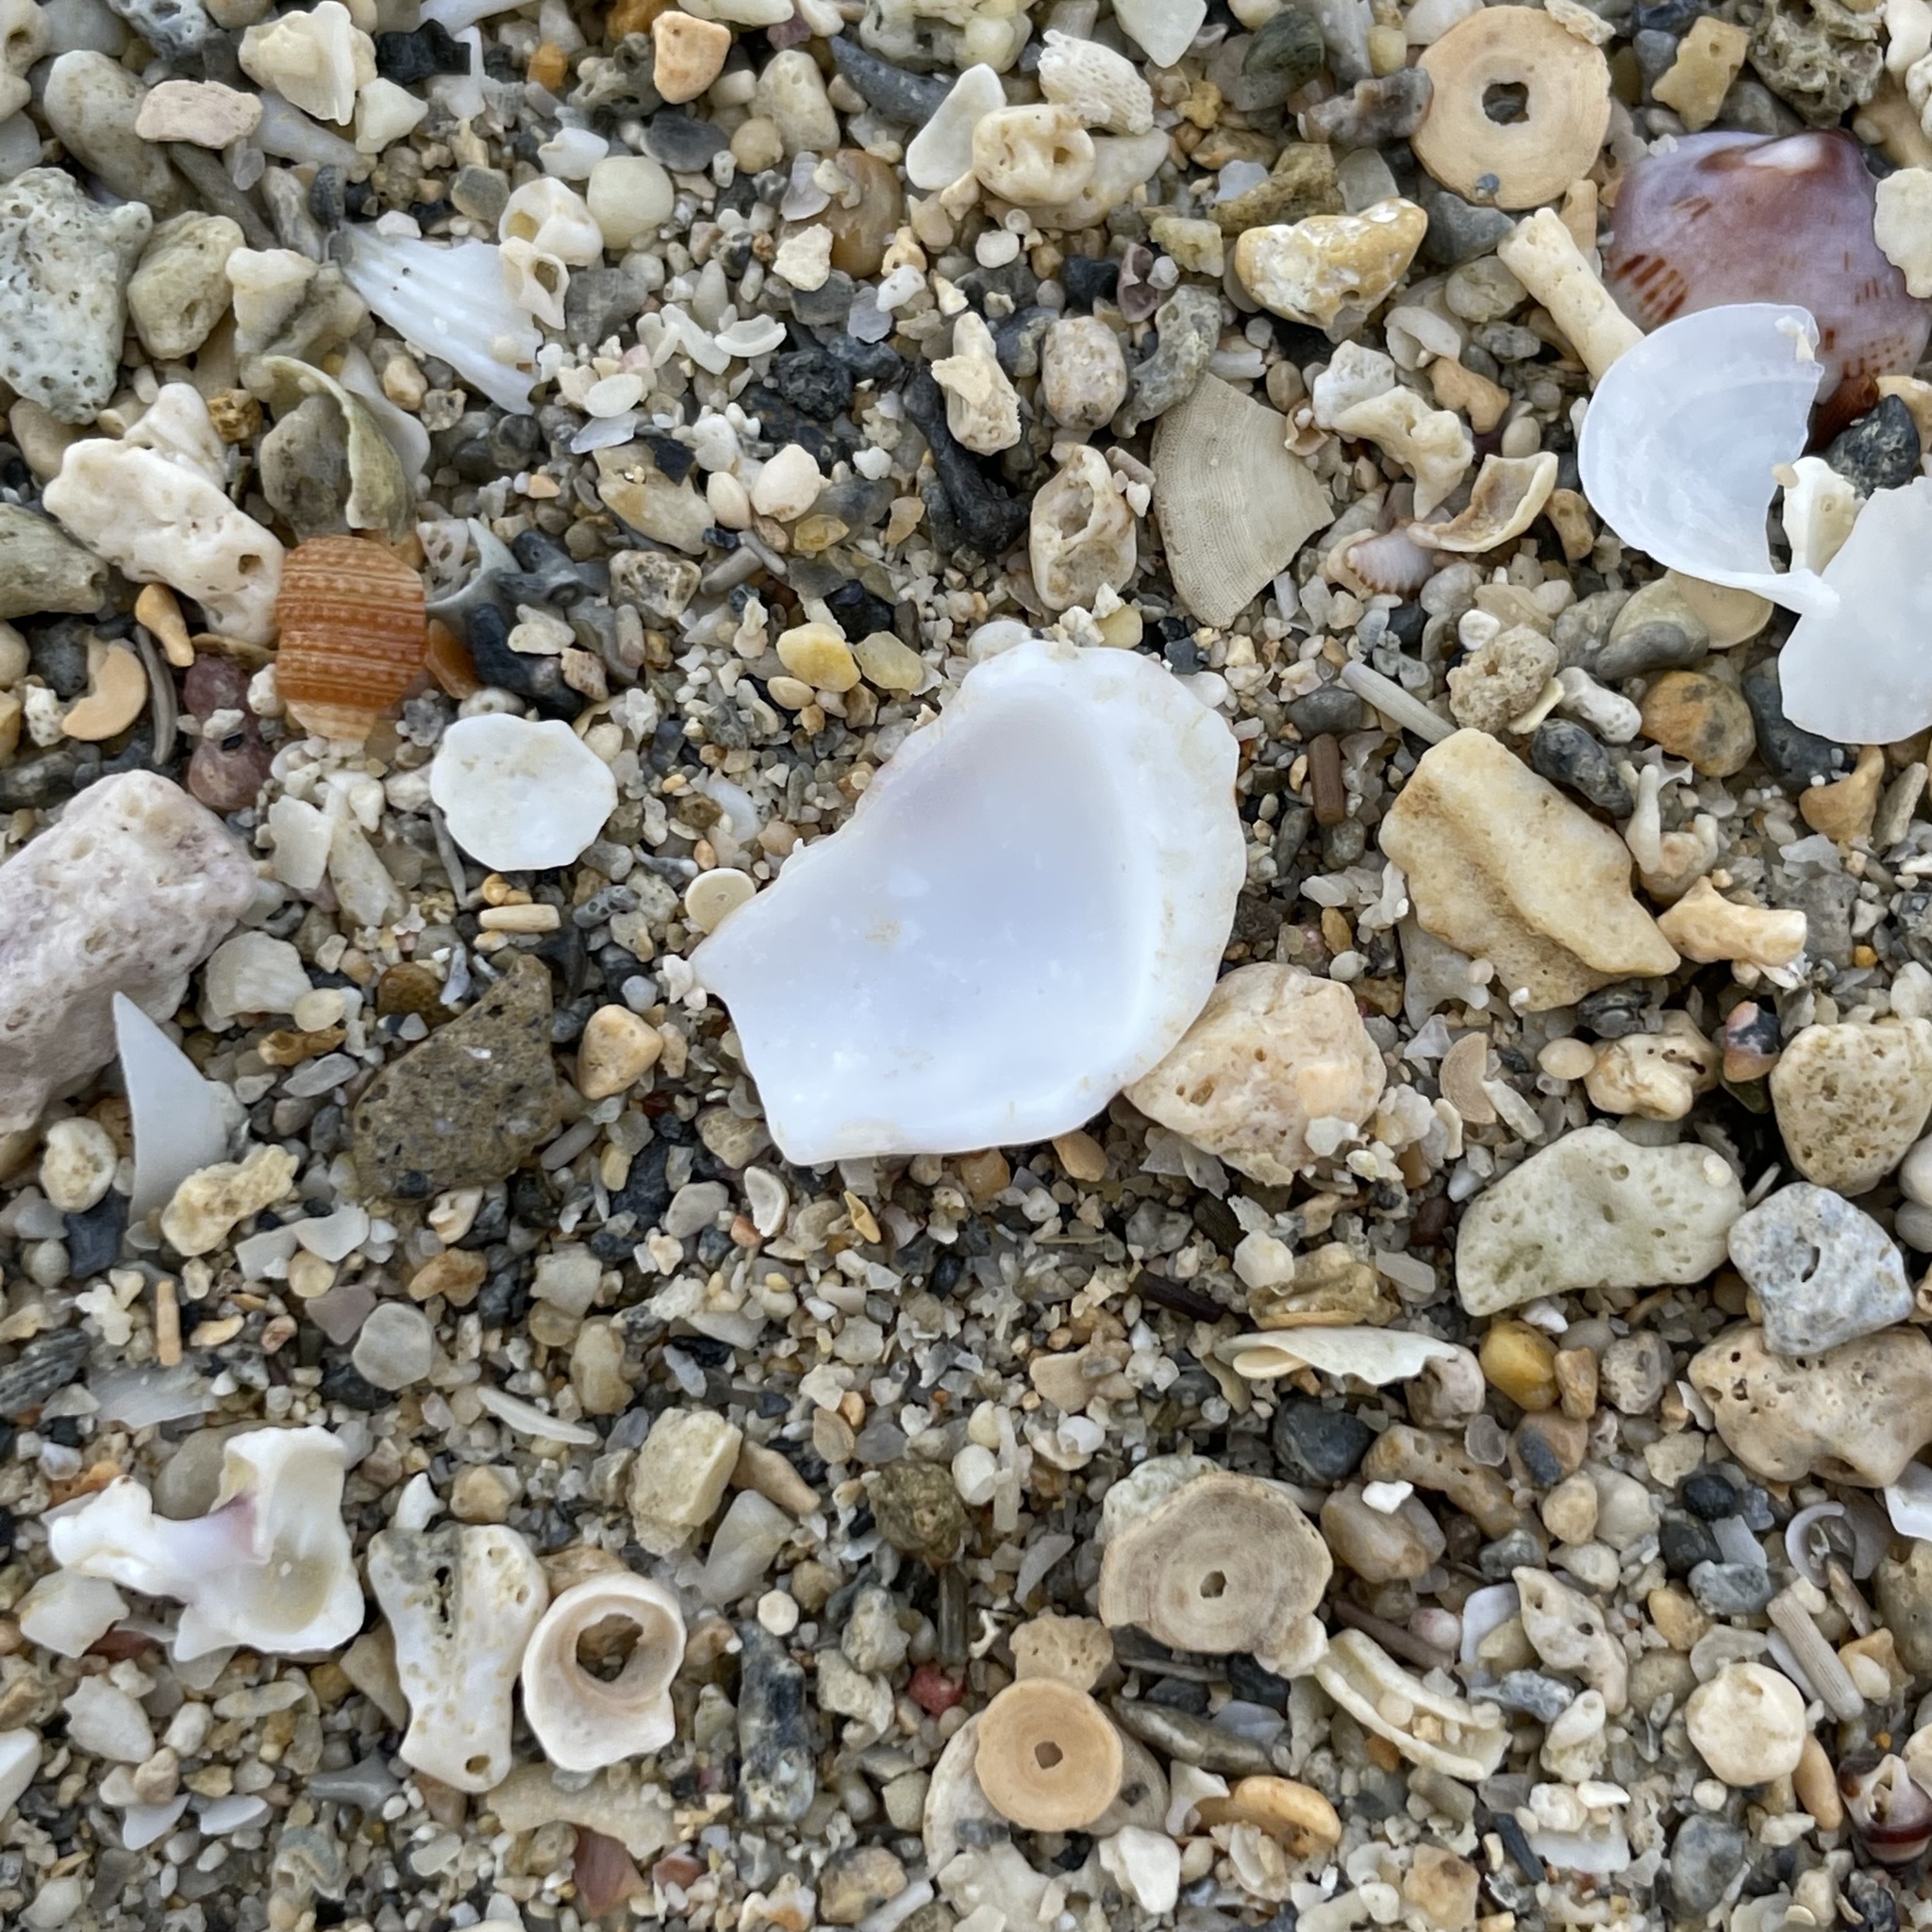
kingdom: Animalia
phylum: Mollusca
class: Gastropoda
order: Neogastropoda
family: Conidae
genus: Conus
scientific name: Conus bandanus
